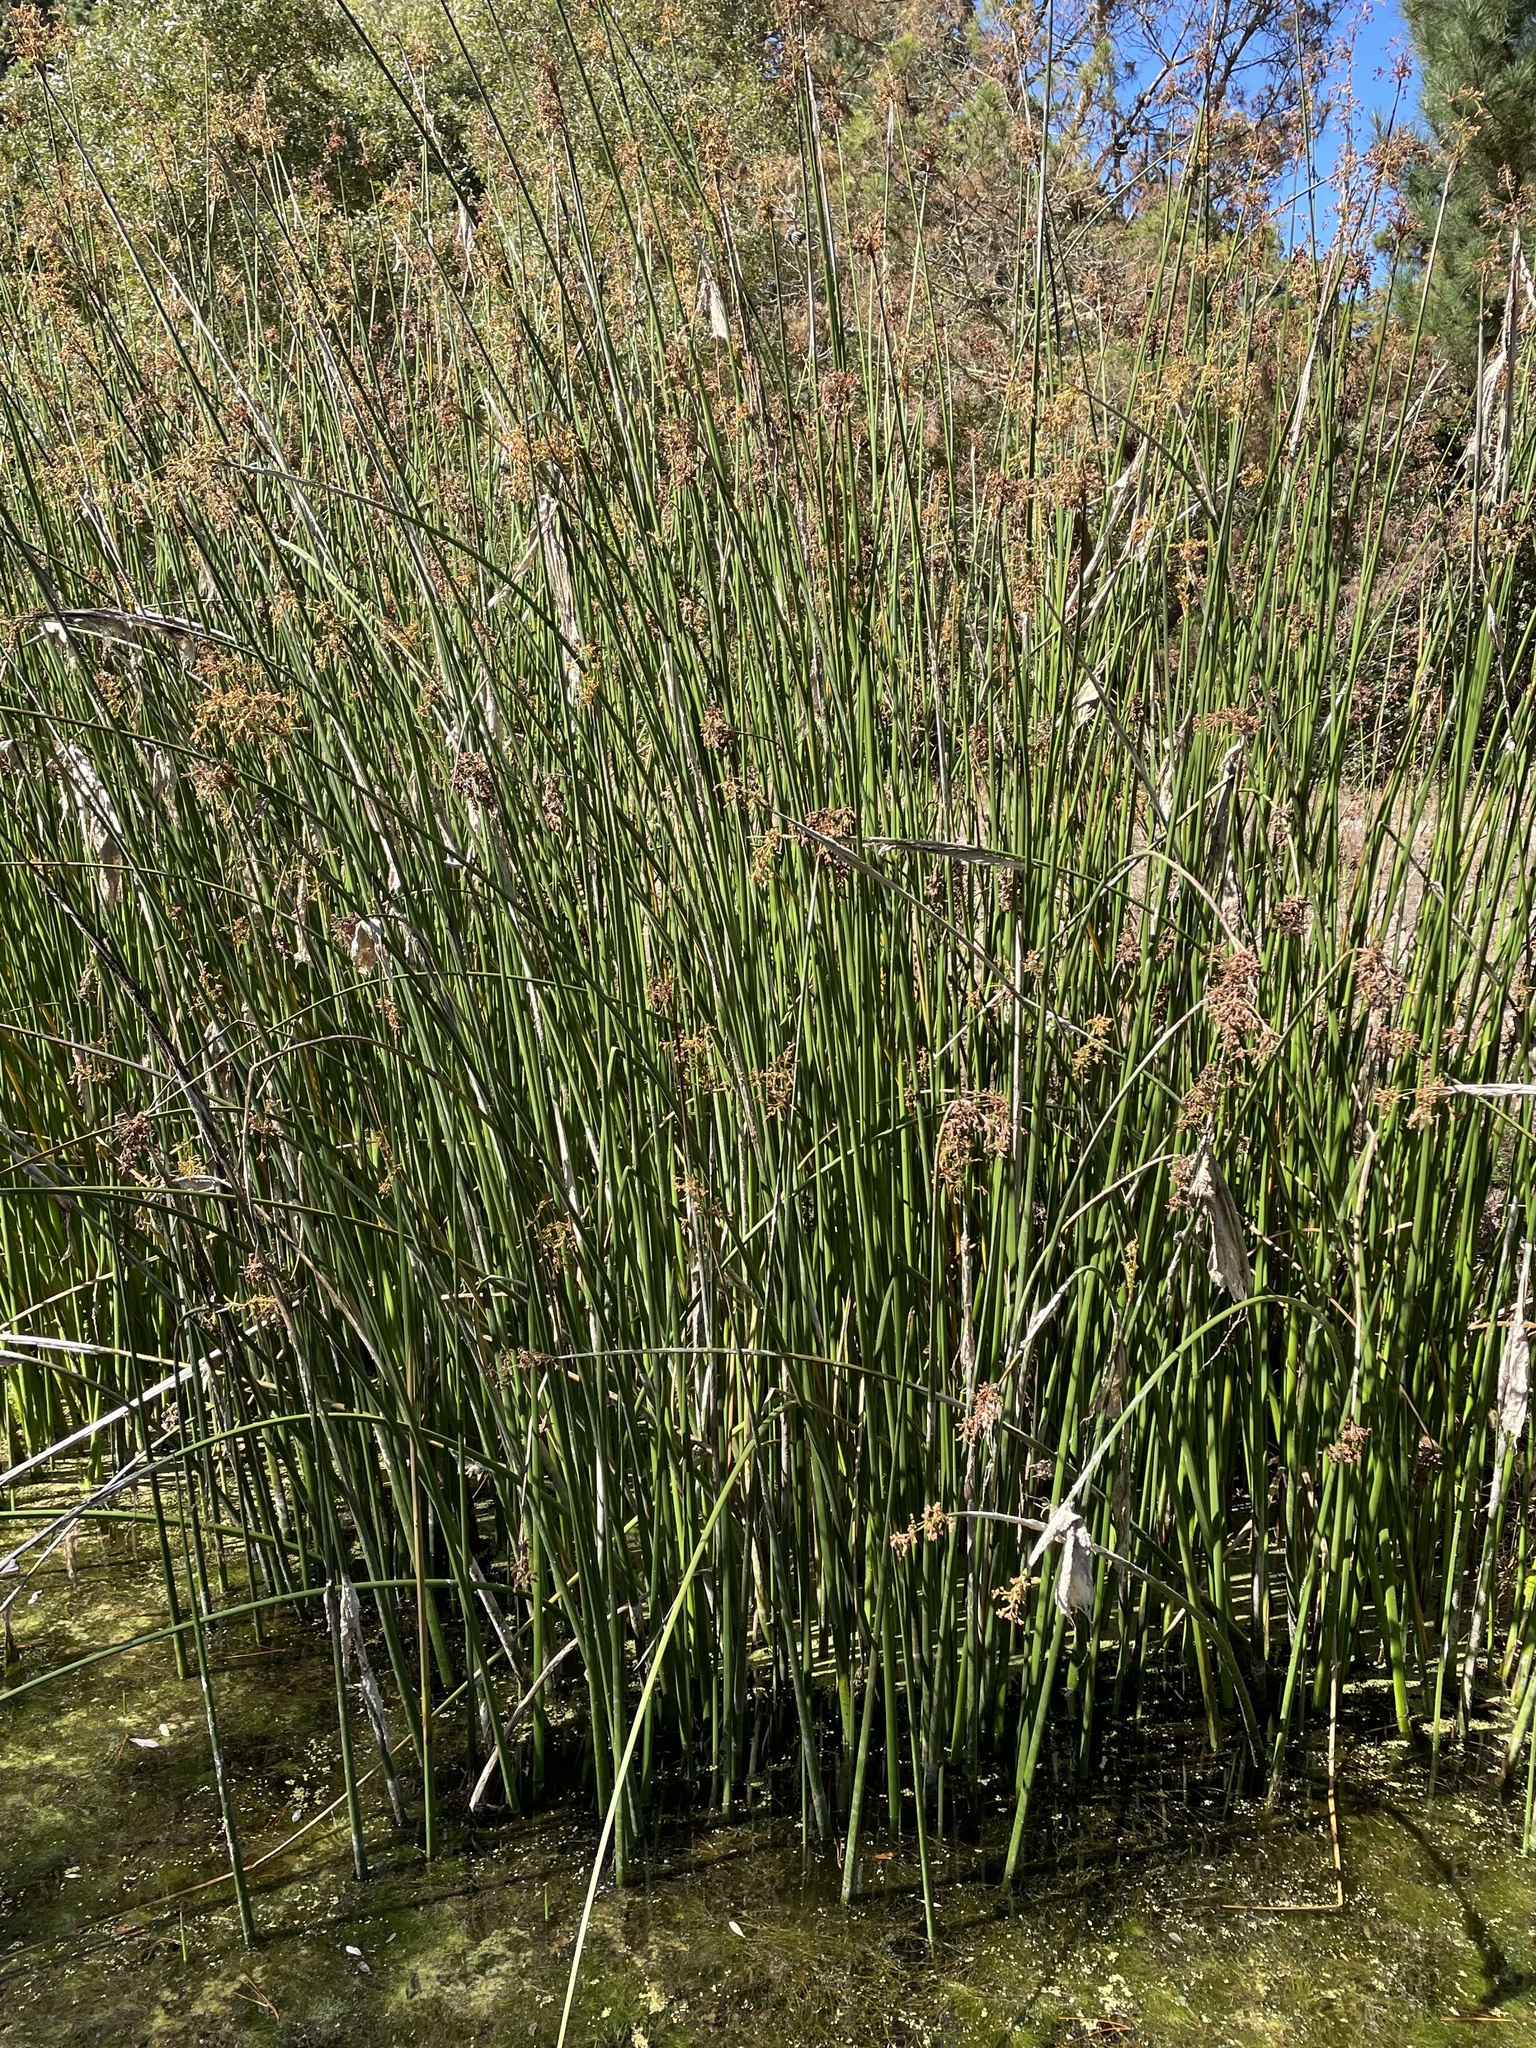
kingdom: Plantae
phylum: Tracheophyta
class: Liliopsida
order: Poales
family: Cyperaceae
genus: Schoenoplectus
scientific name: Schoenoplectus californicus
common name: California bulrush
